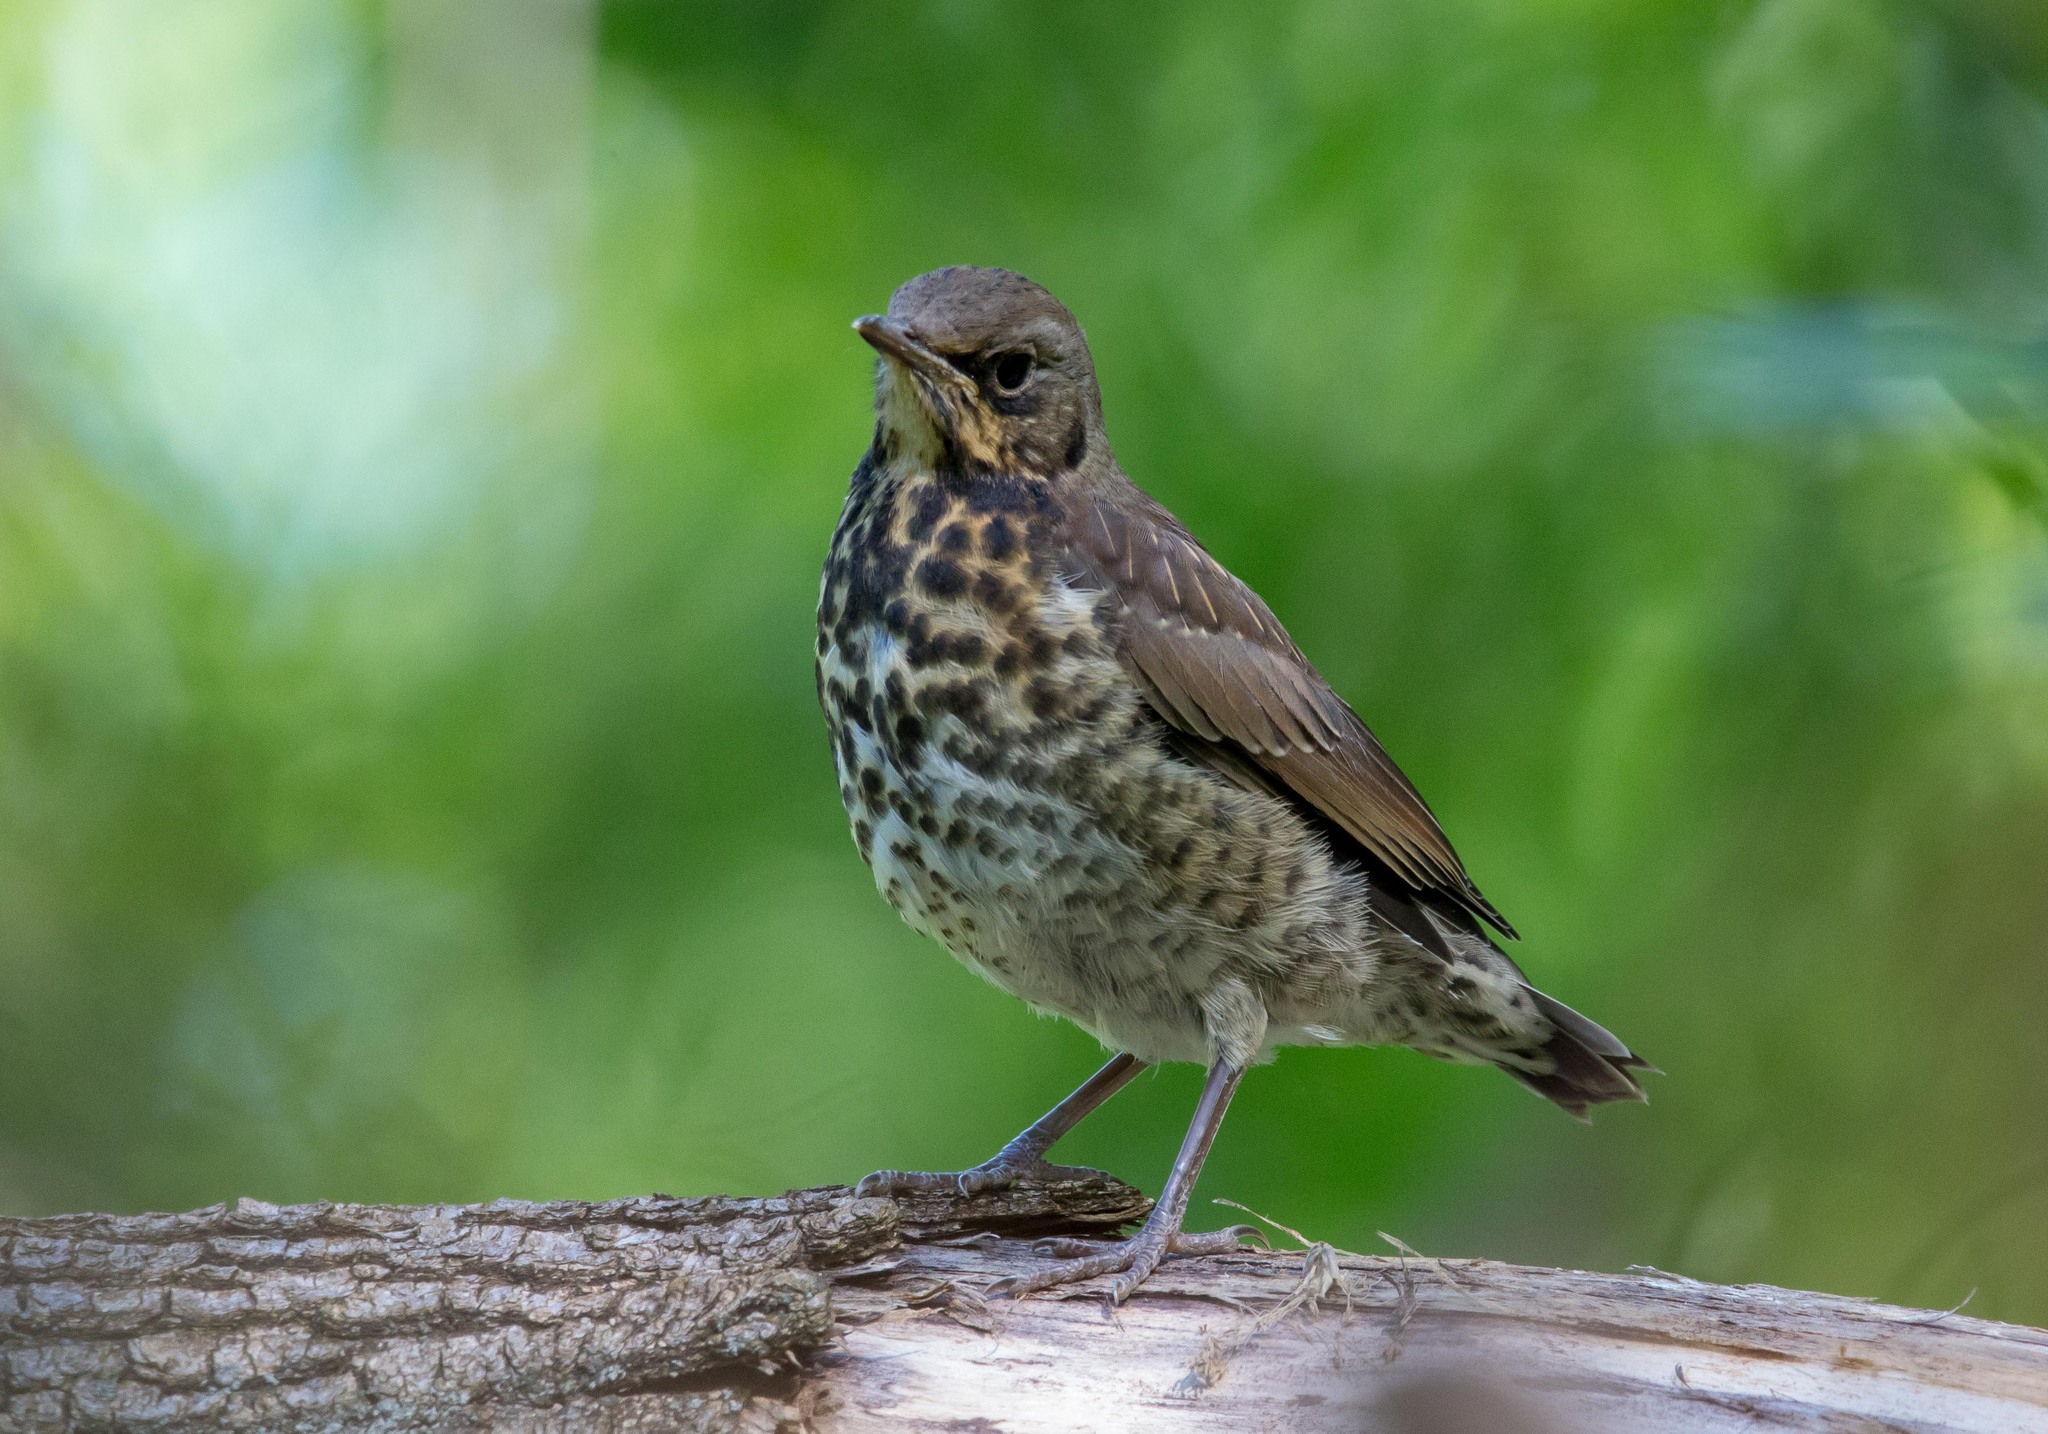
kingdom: Animalia
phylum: Chordata
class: Aves
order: Passeriformes
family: Turdidae
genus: Turdus
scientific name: Turdus pilaris
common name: Fieldfare
